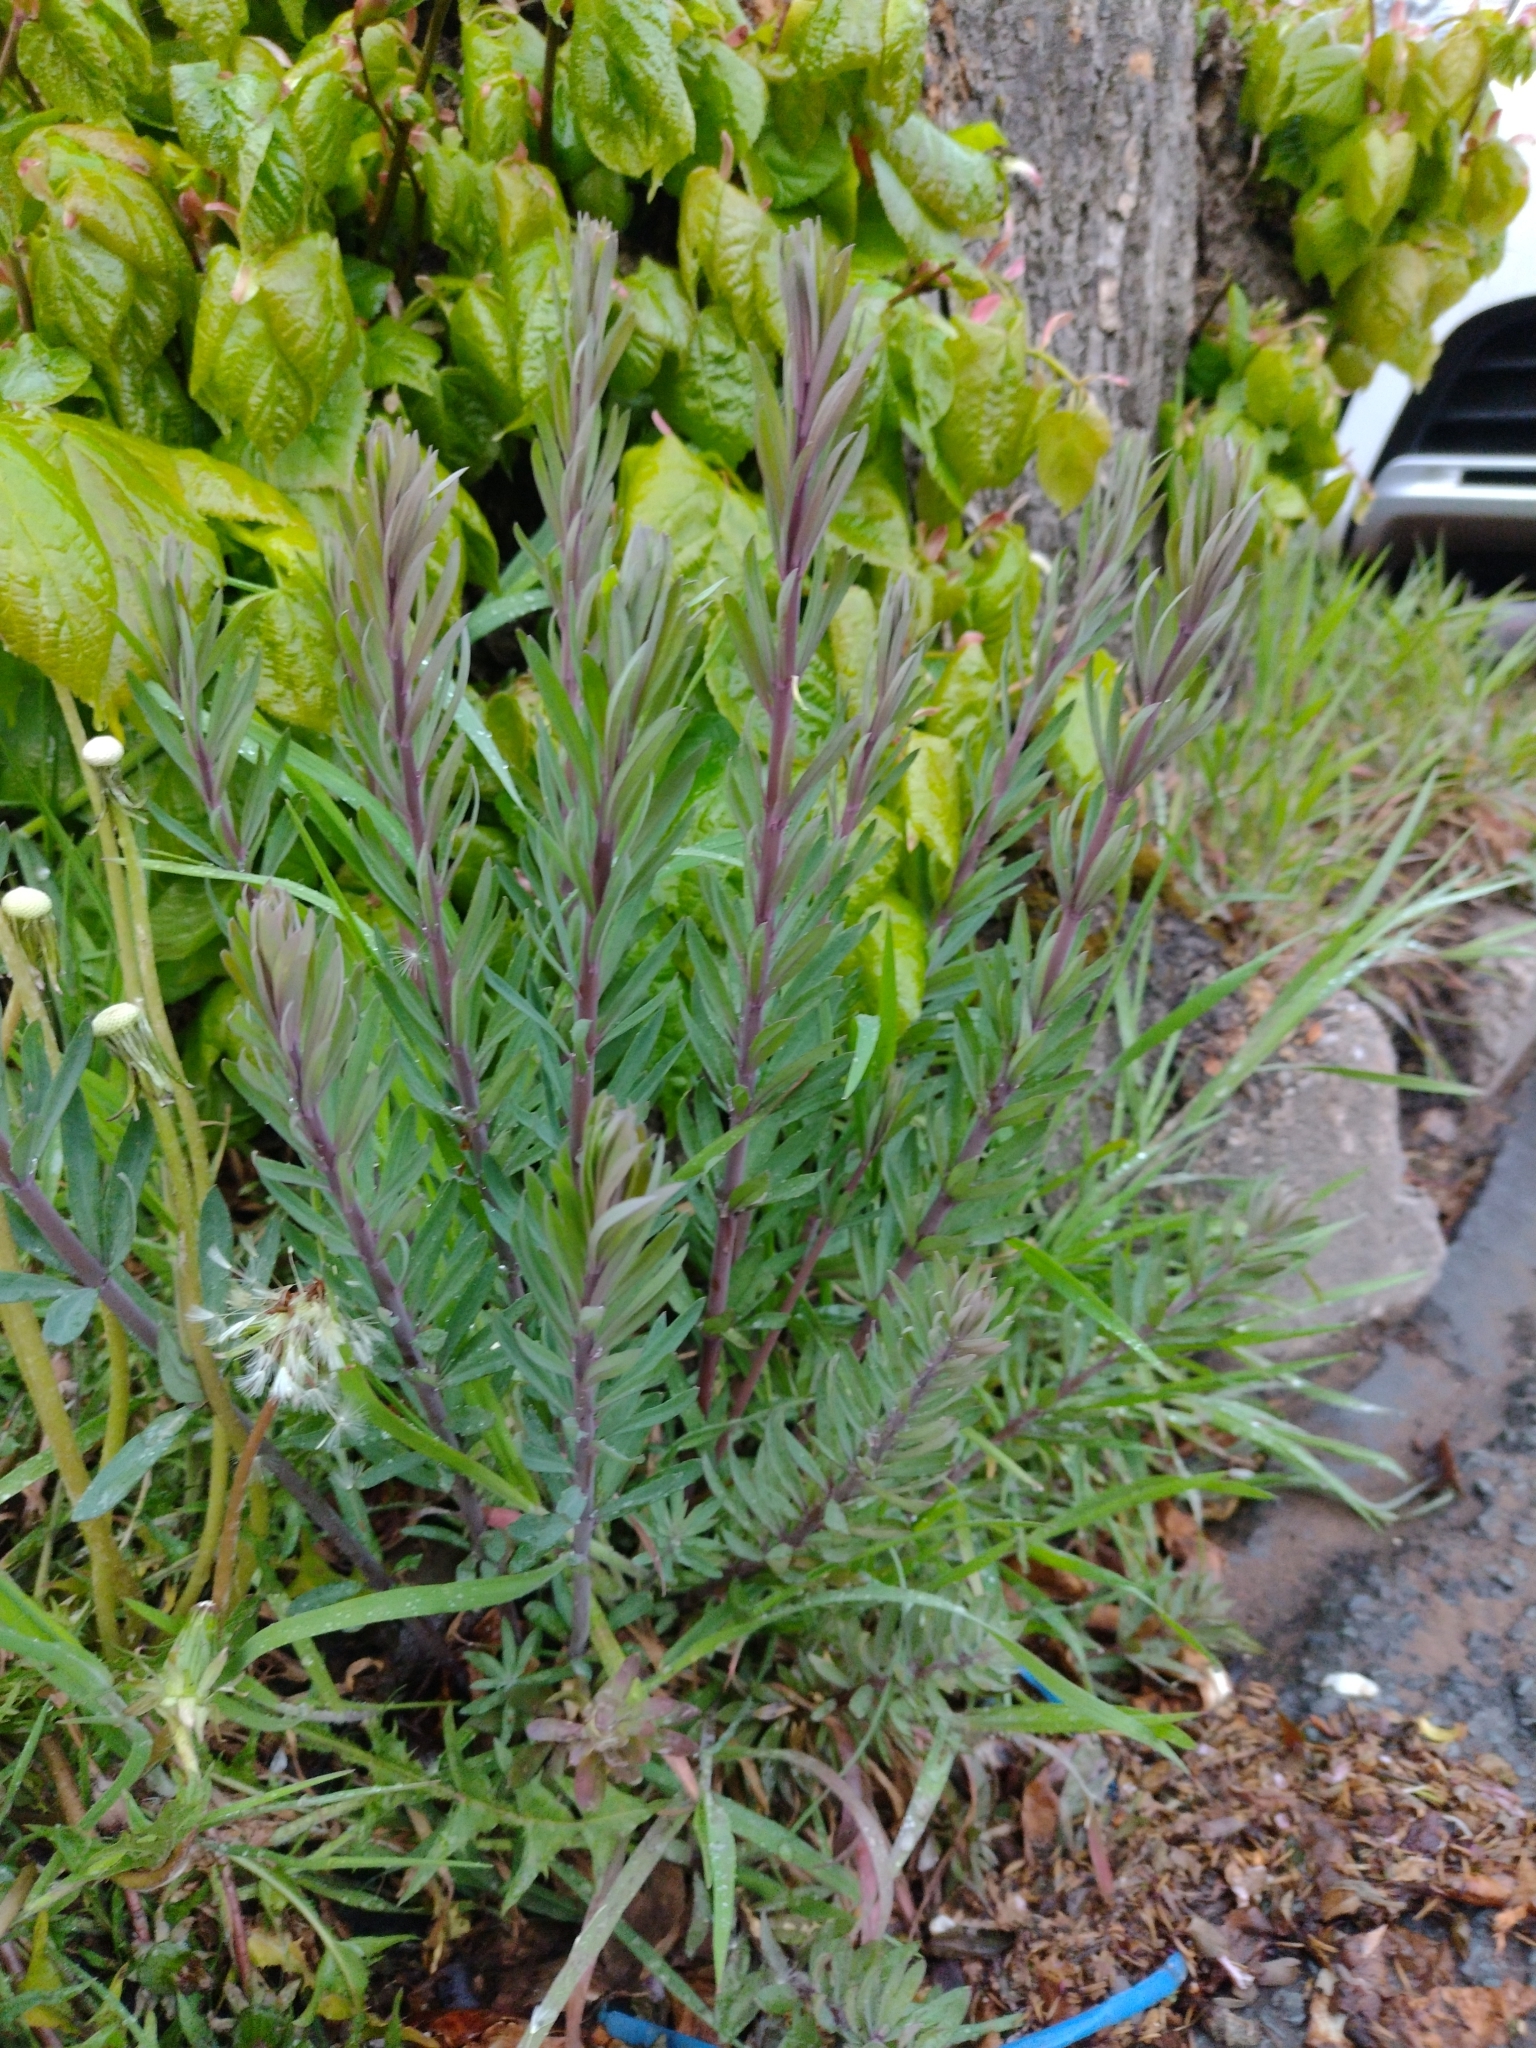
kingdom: Plantae
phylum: Tracheophyta
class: Magnoliopsida
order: Lamiales
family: Plantaginaceae
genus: Linaria
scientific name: Linaria purpurea
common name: Purple toadflax
